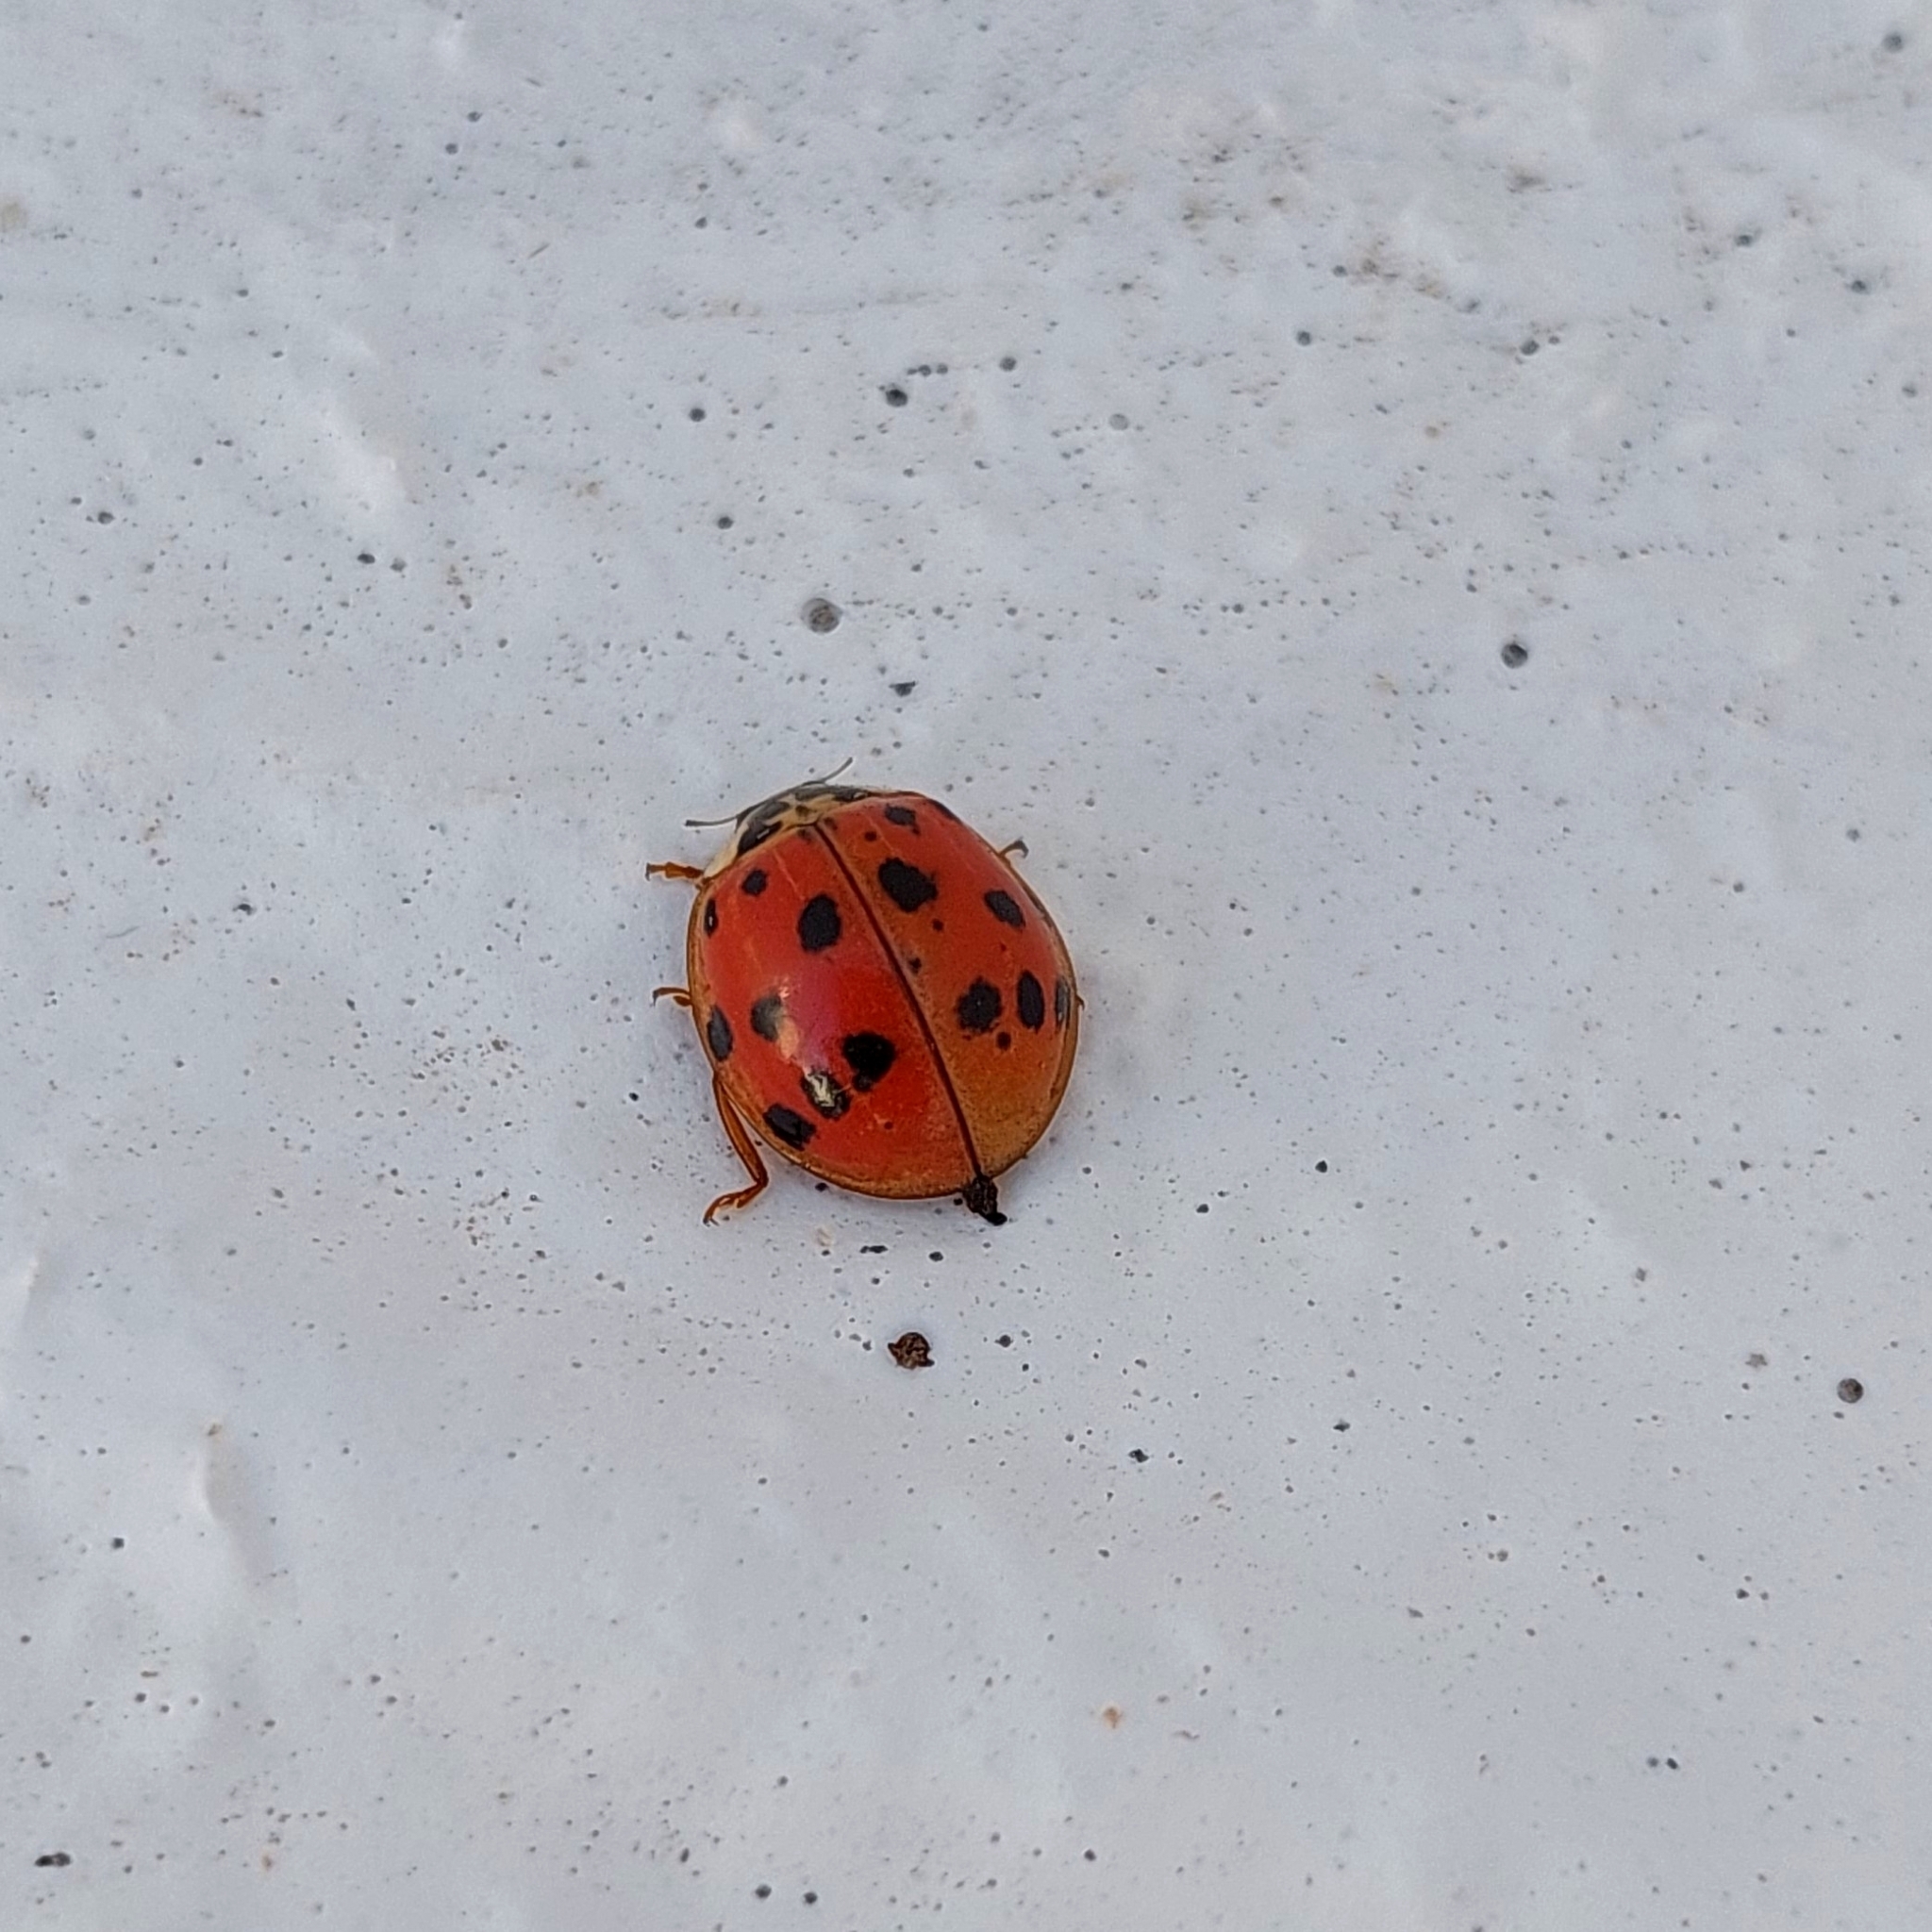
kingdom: Animalia
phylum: Arthropoda
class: Insecta
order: Coleoptera
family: Coccinellidae
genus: Harmonia
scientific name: Harmonia axyridis
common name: Harlequin ladybird
